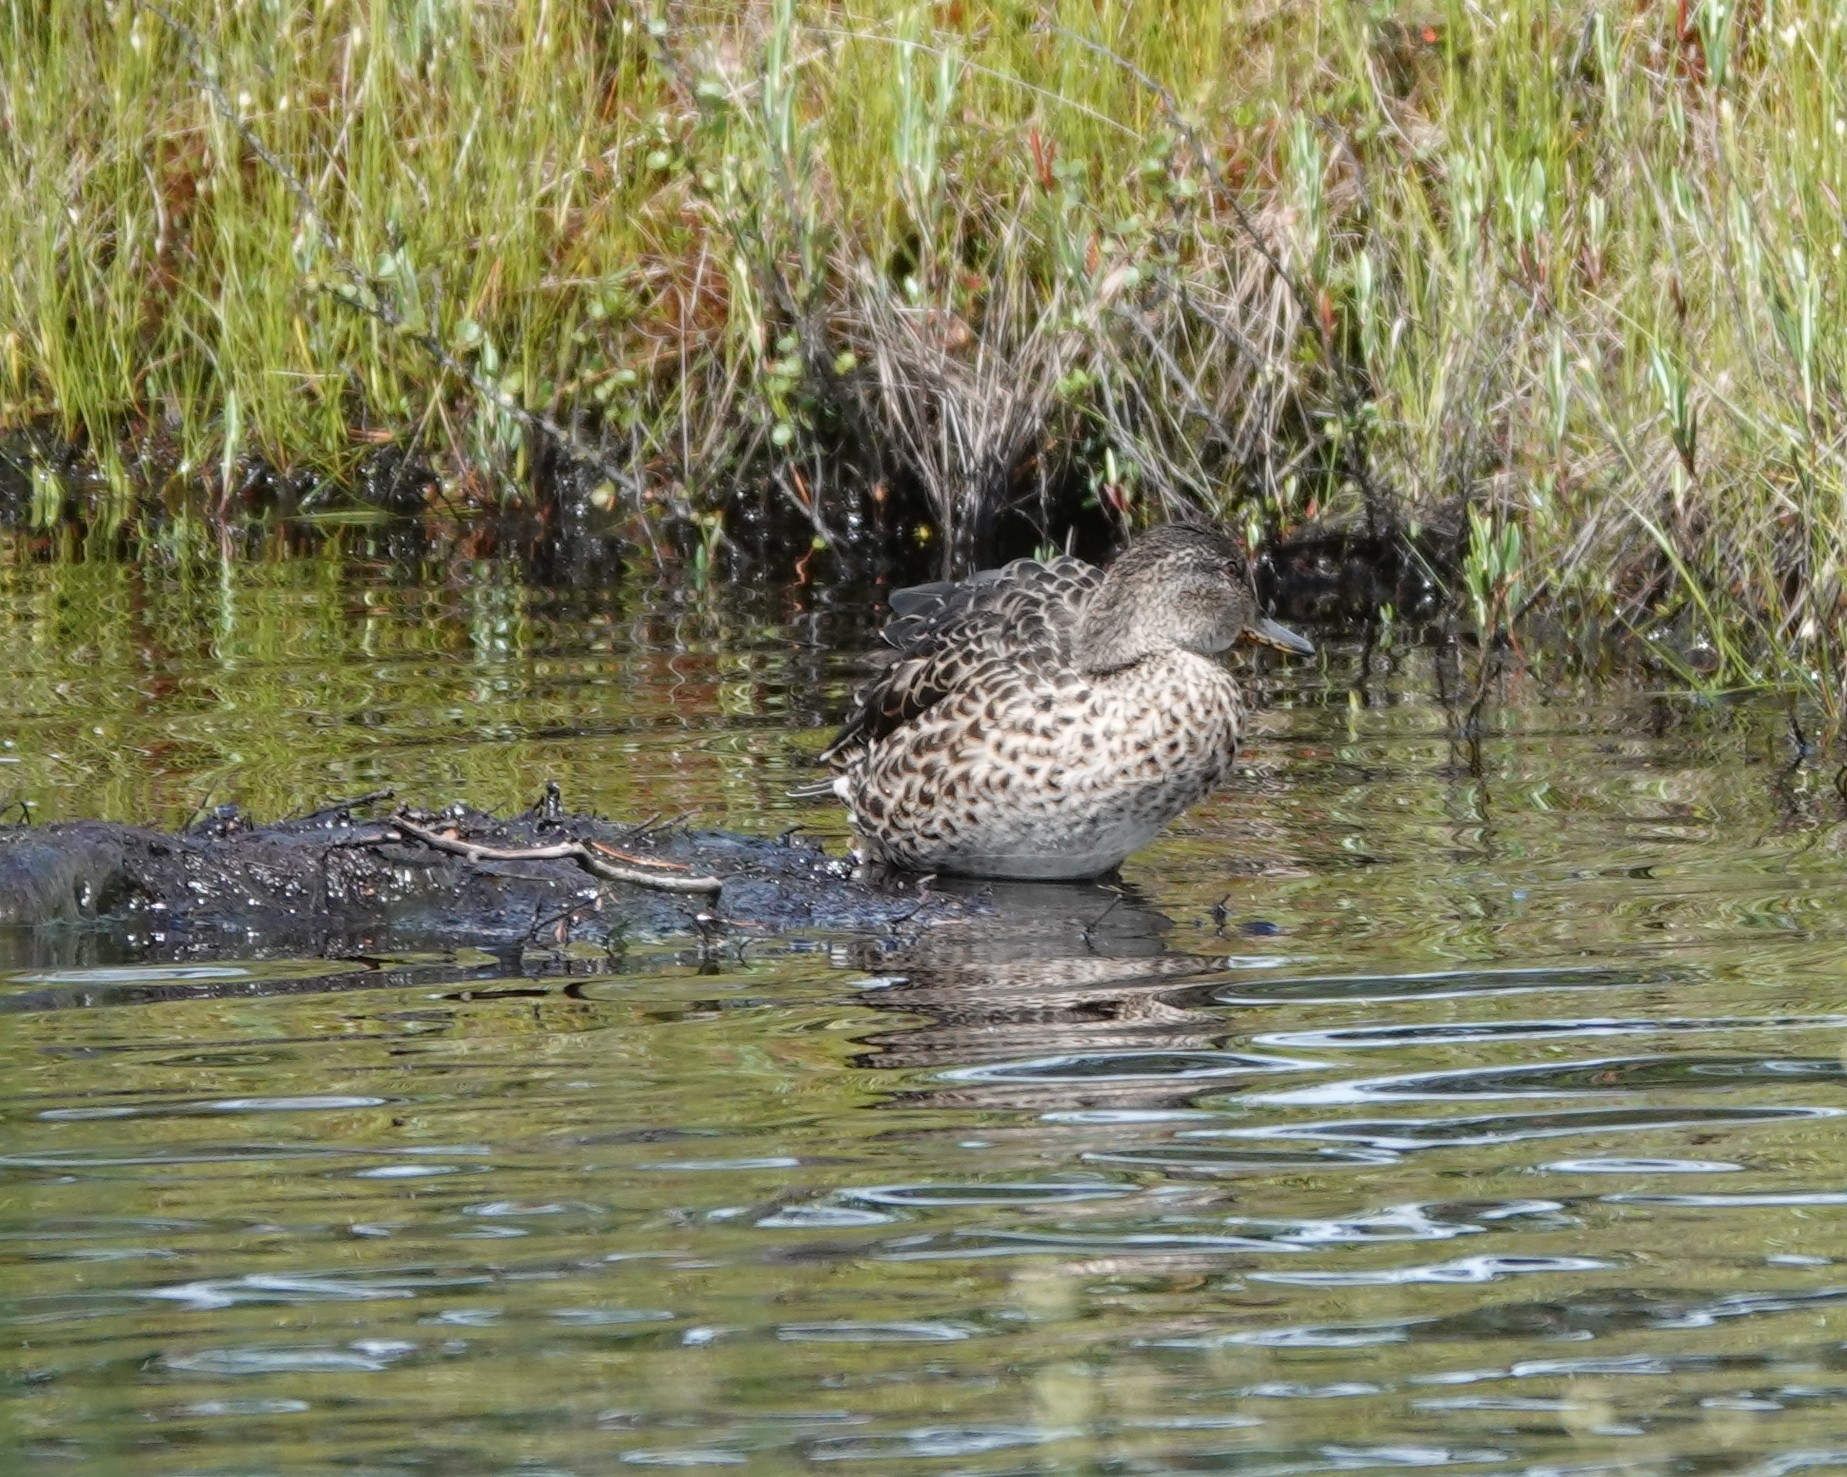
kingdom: Animalia
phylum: Chordata
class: Aves
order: Anseriformes
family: Anatidae
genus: Anas
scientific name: Anas crecca
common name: Eurasian teal
